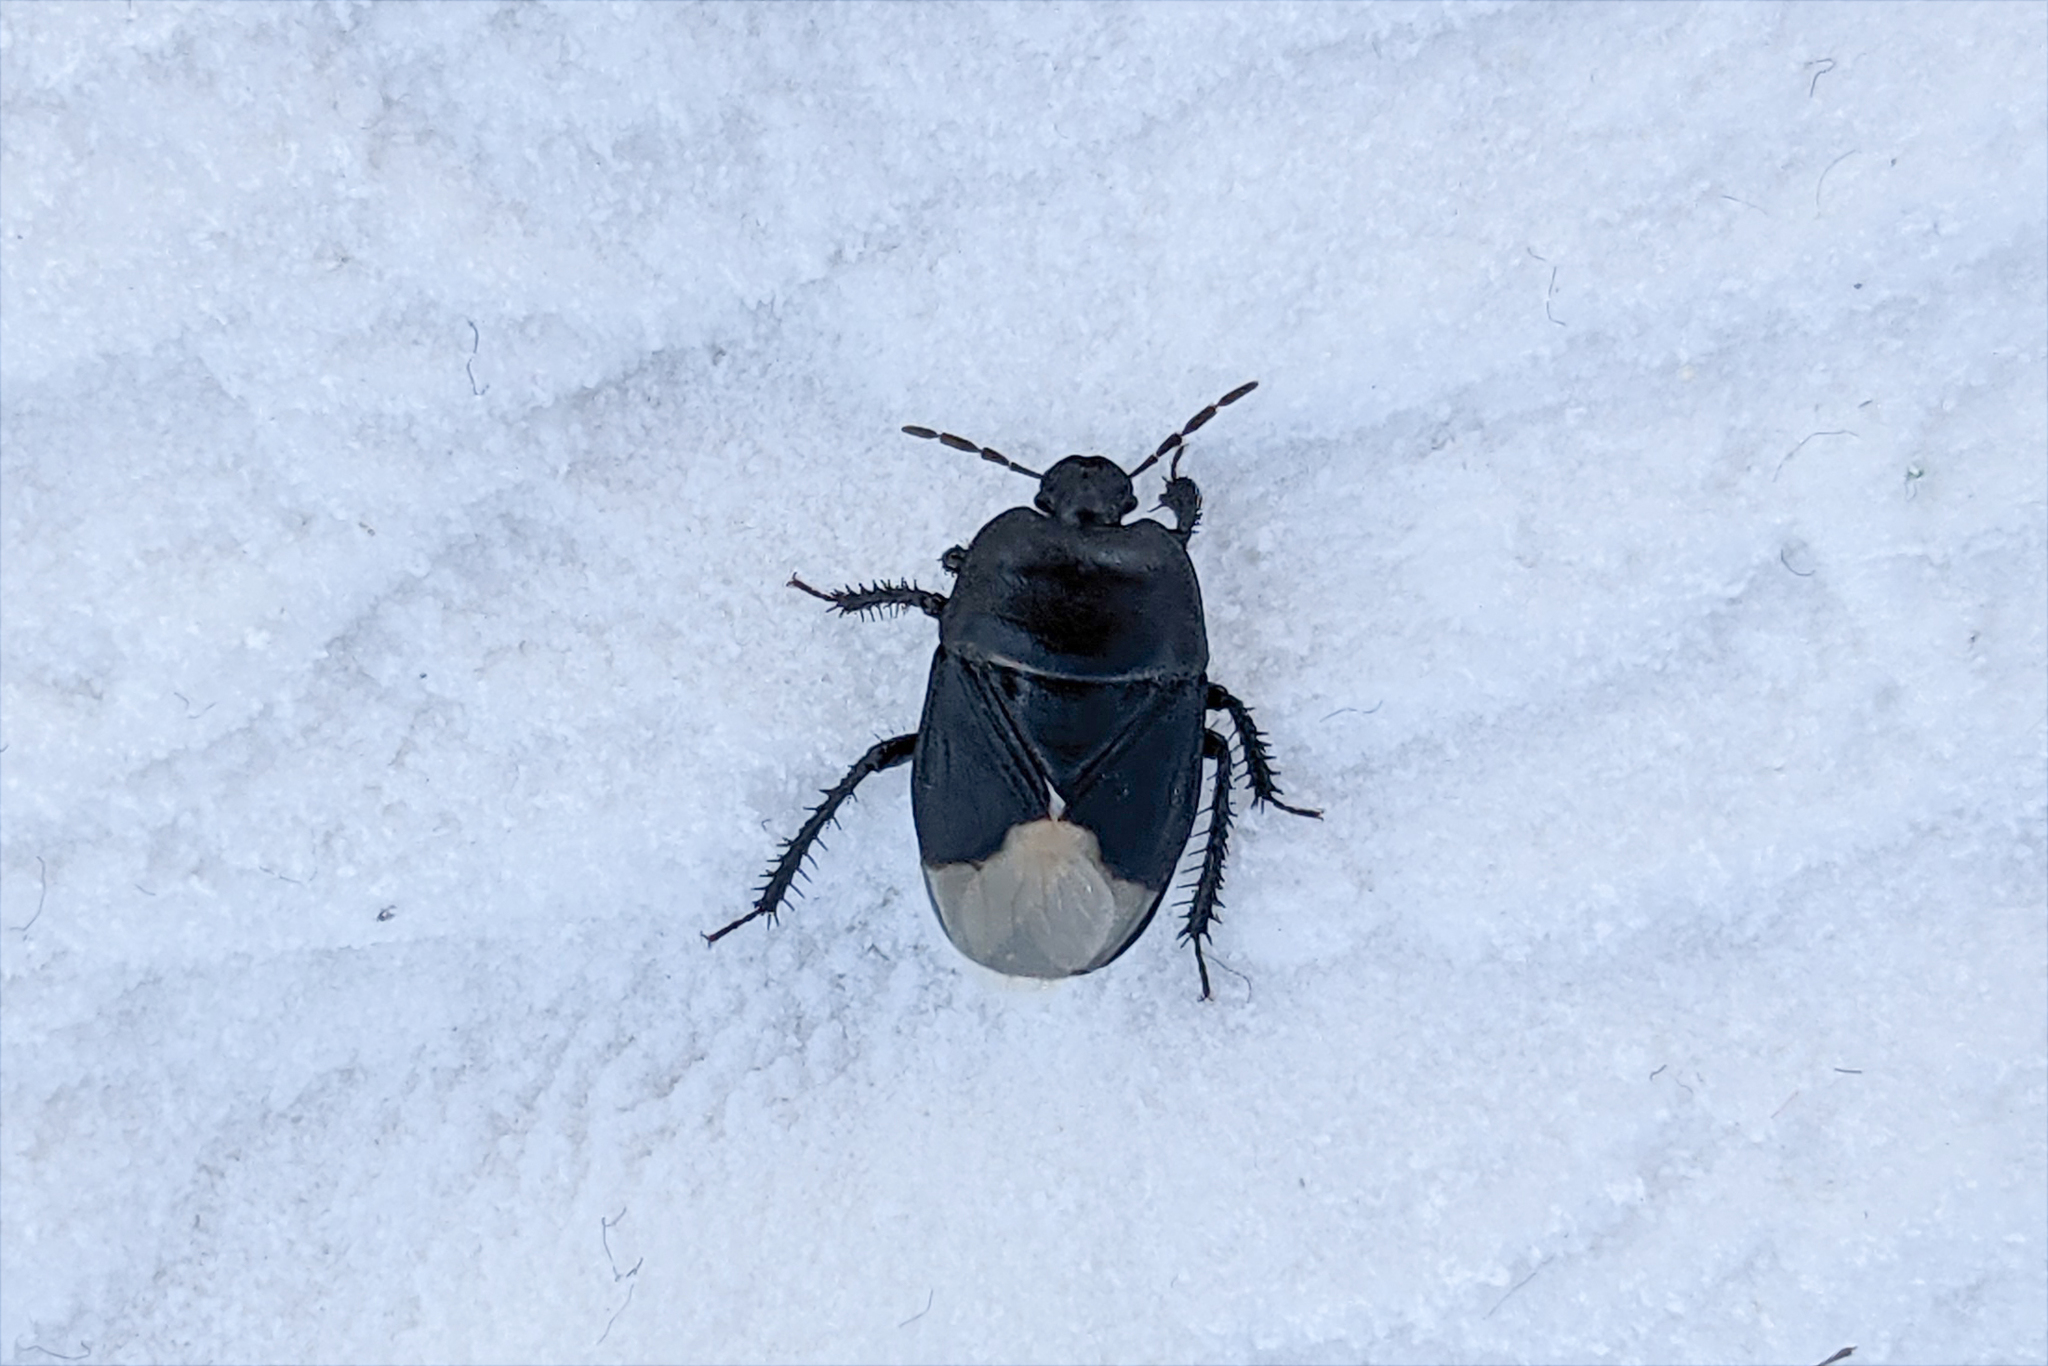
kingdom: Animalia
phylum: Arthropoda
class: Insecta
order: Hemiptera
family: Cydnidae
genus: Cydnus
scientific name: Cydnus aterrimus
